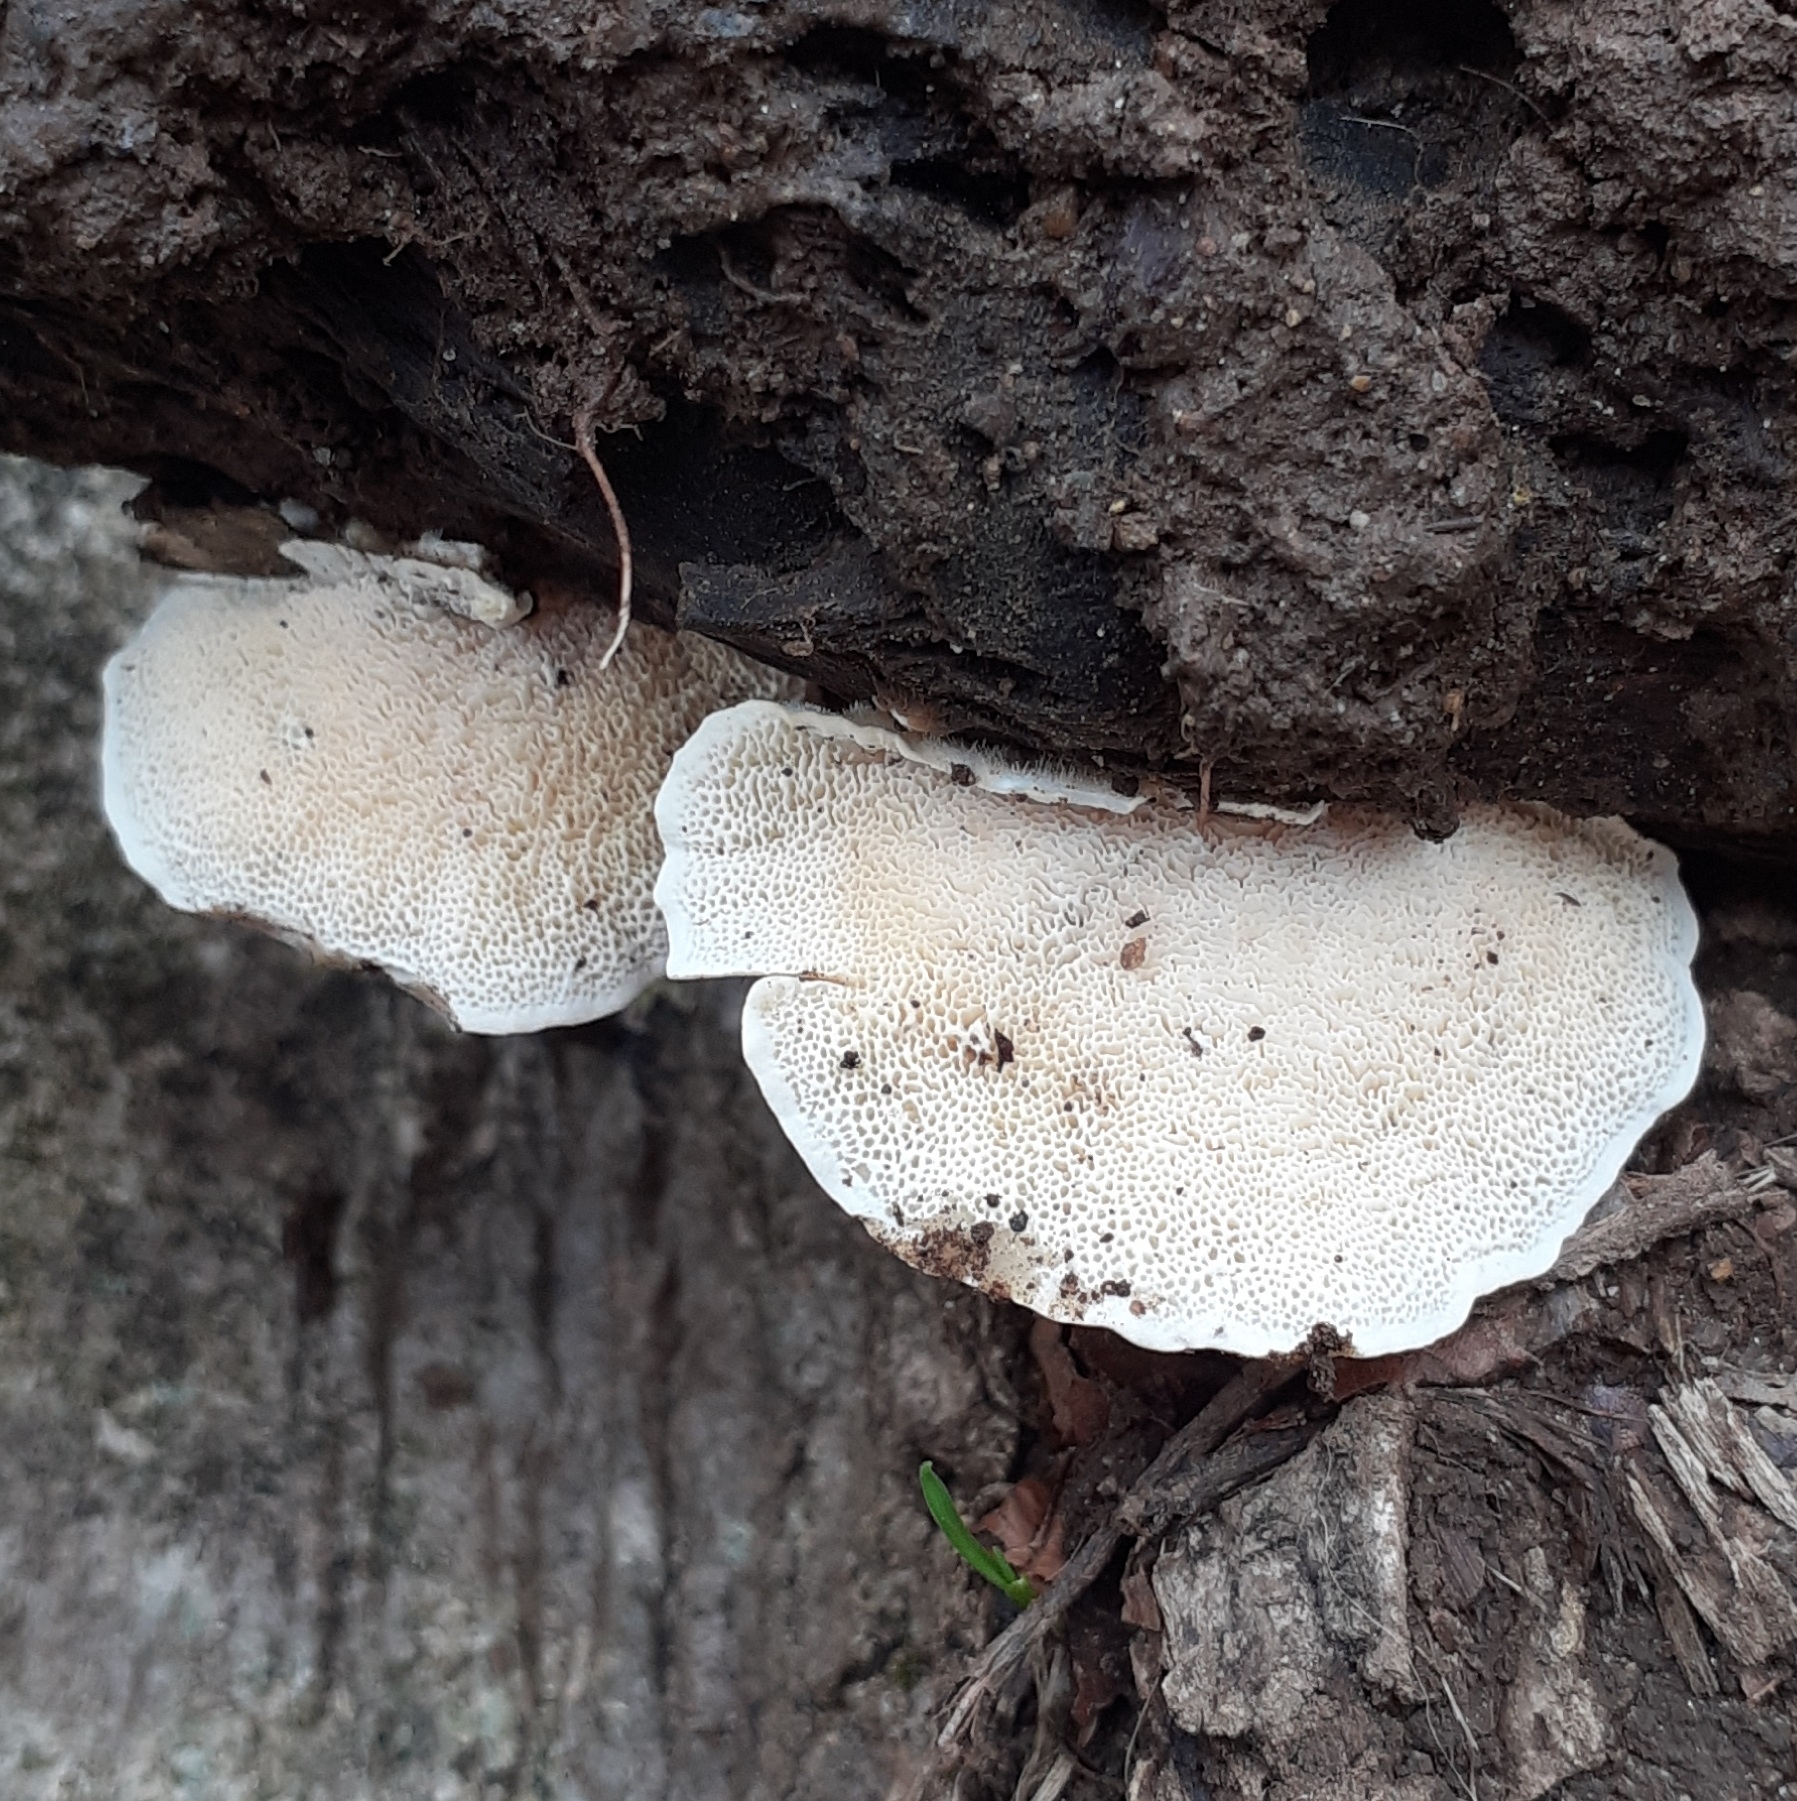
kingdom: Fungi
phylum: Basidiomycota
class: Agaricomycetes
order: Polyporales
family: Polyporaceae
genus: Trametes
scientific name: Trametes ochracea
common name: Ochre bracket
